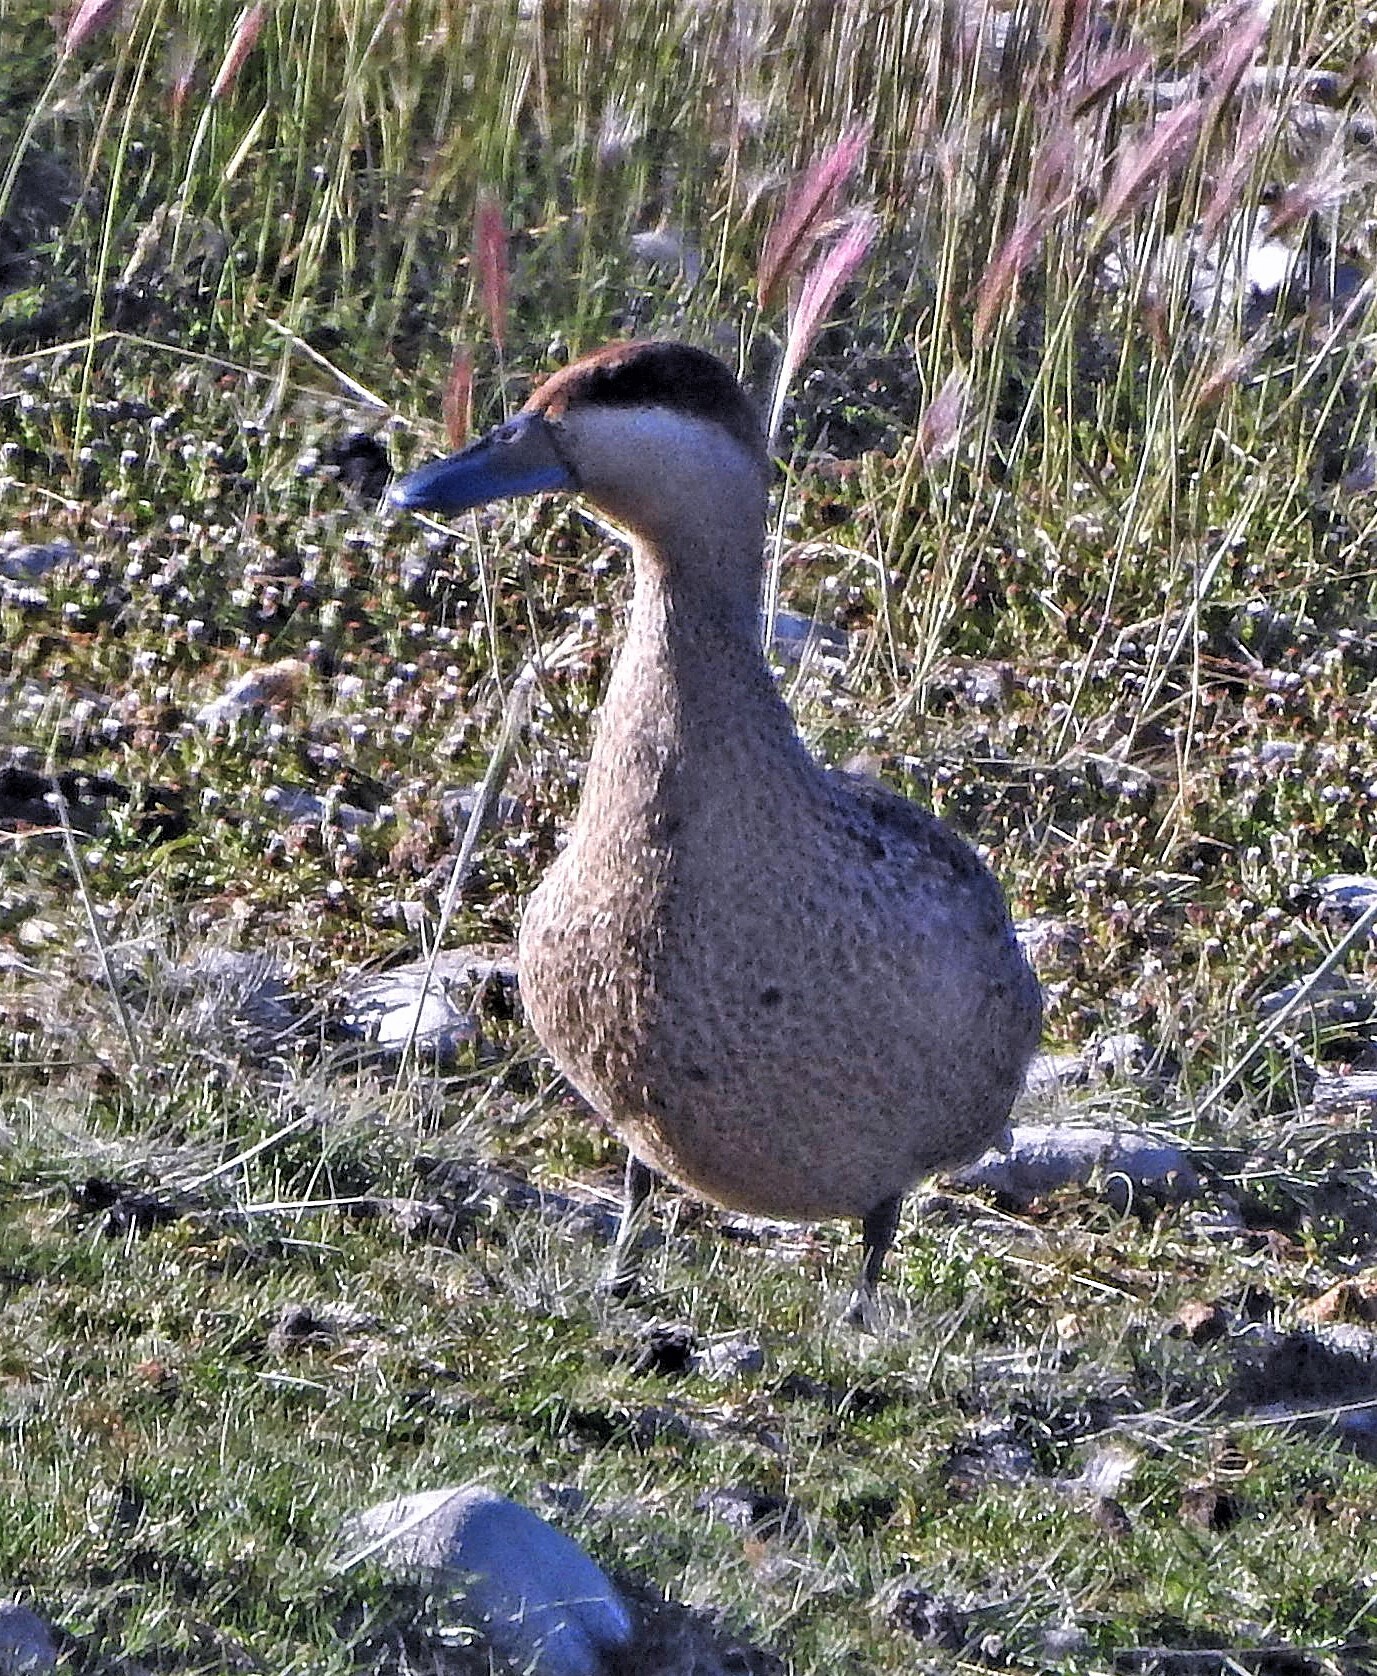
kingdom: Animalia
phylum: Chordata
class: Aves
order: Anseriformes
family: Anatidae
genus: Spatula
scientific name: Spatula versicolor
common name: Silver teal
